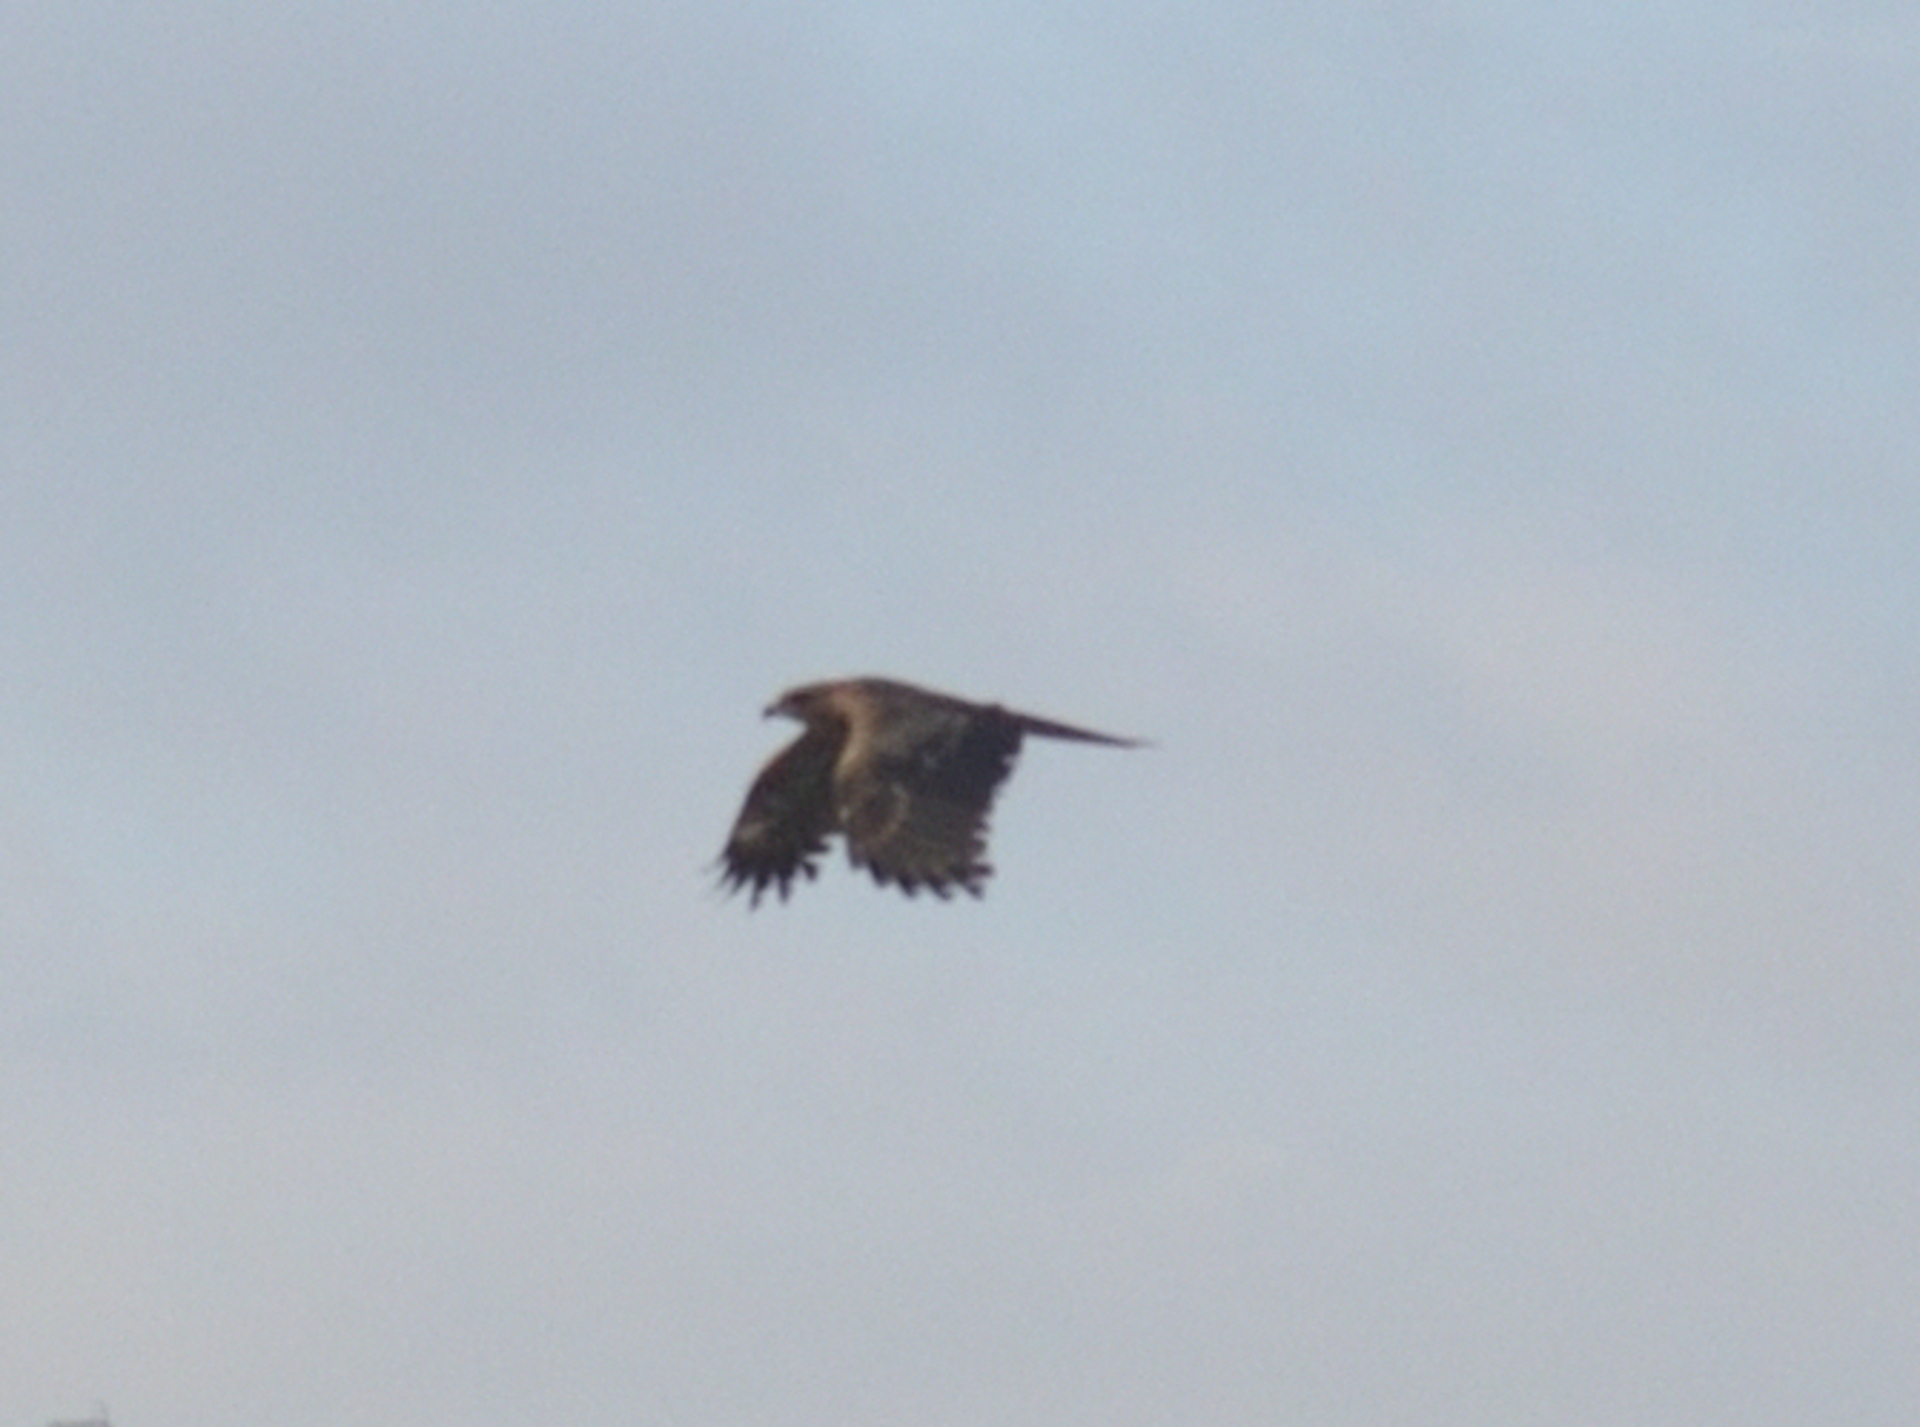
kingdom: Animalia
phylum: Chordata
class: Aves
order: Accipitriformes
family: Accipitridae
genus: Milvus
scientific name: Milvus migrans
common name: Black kite
